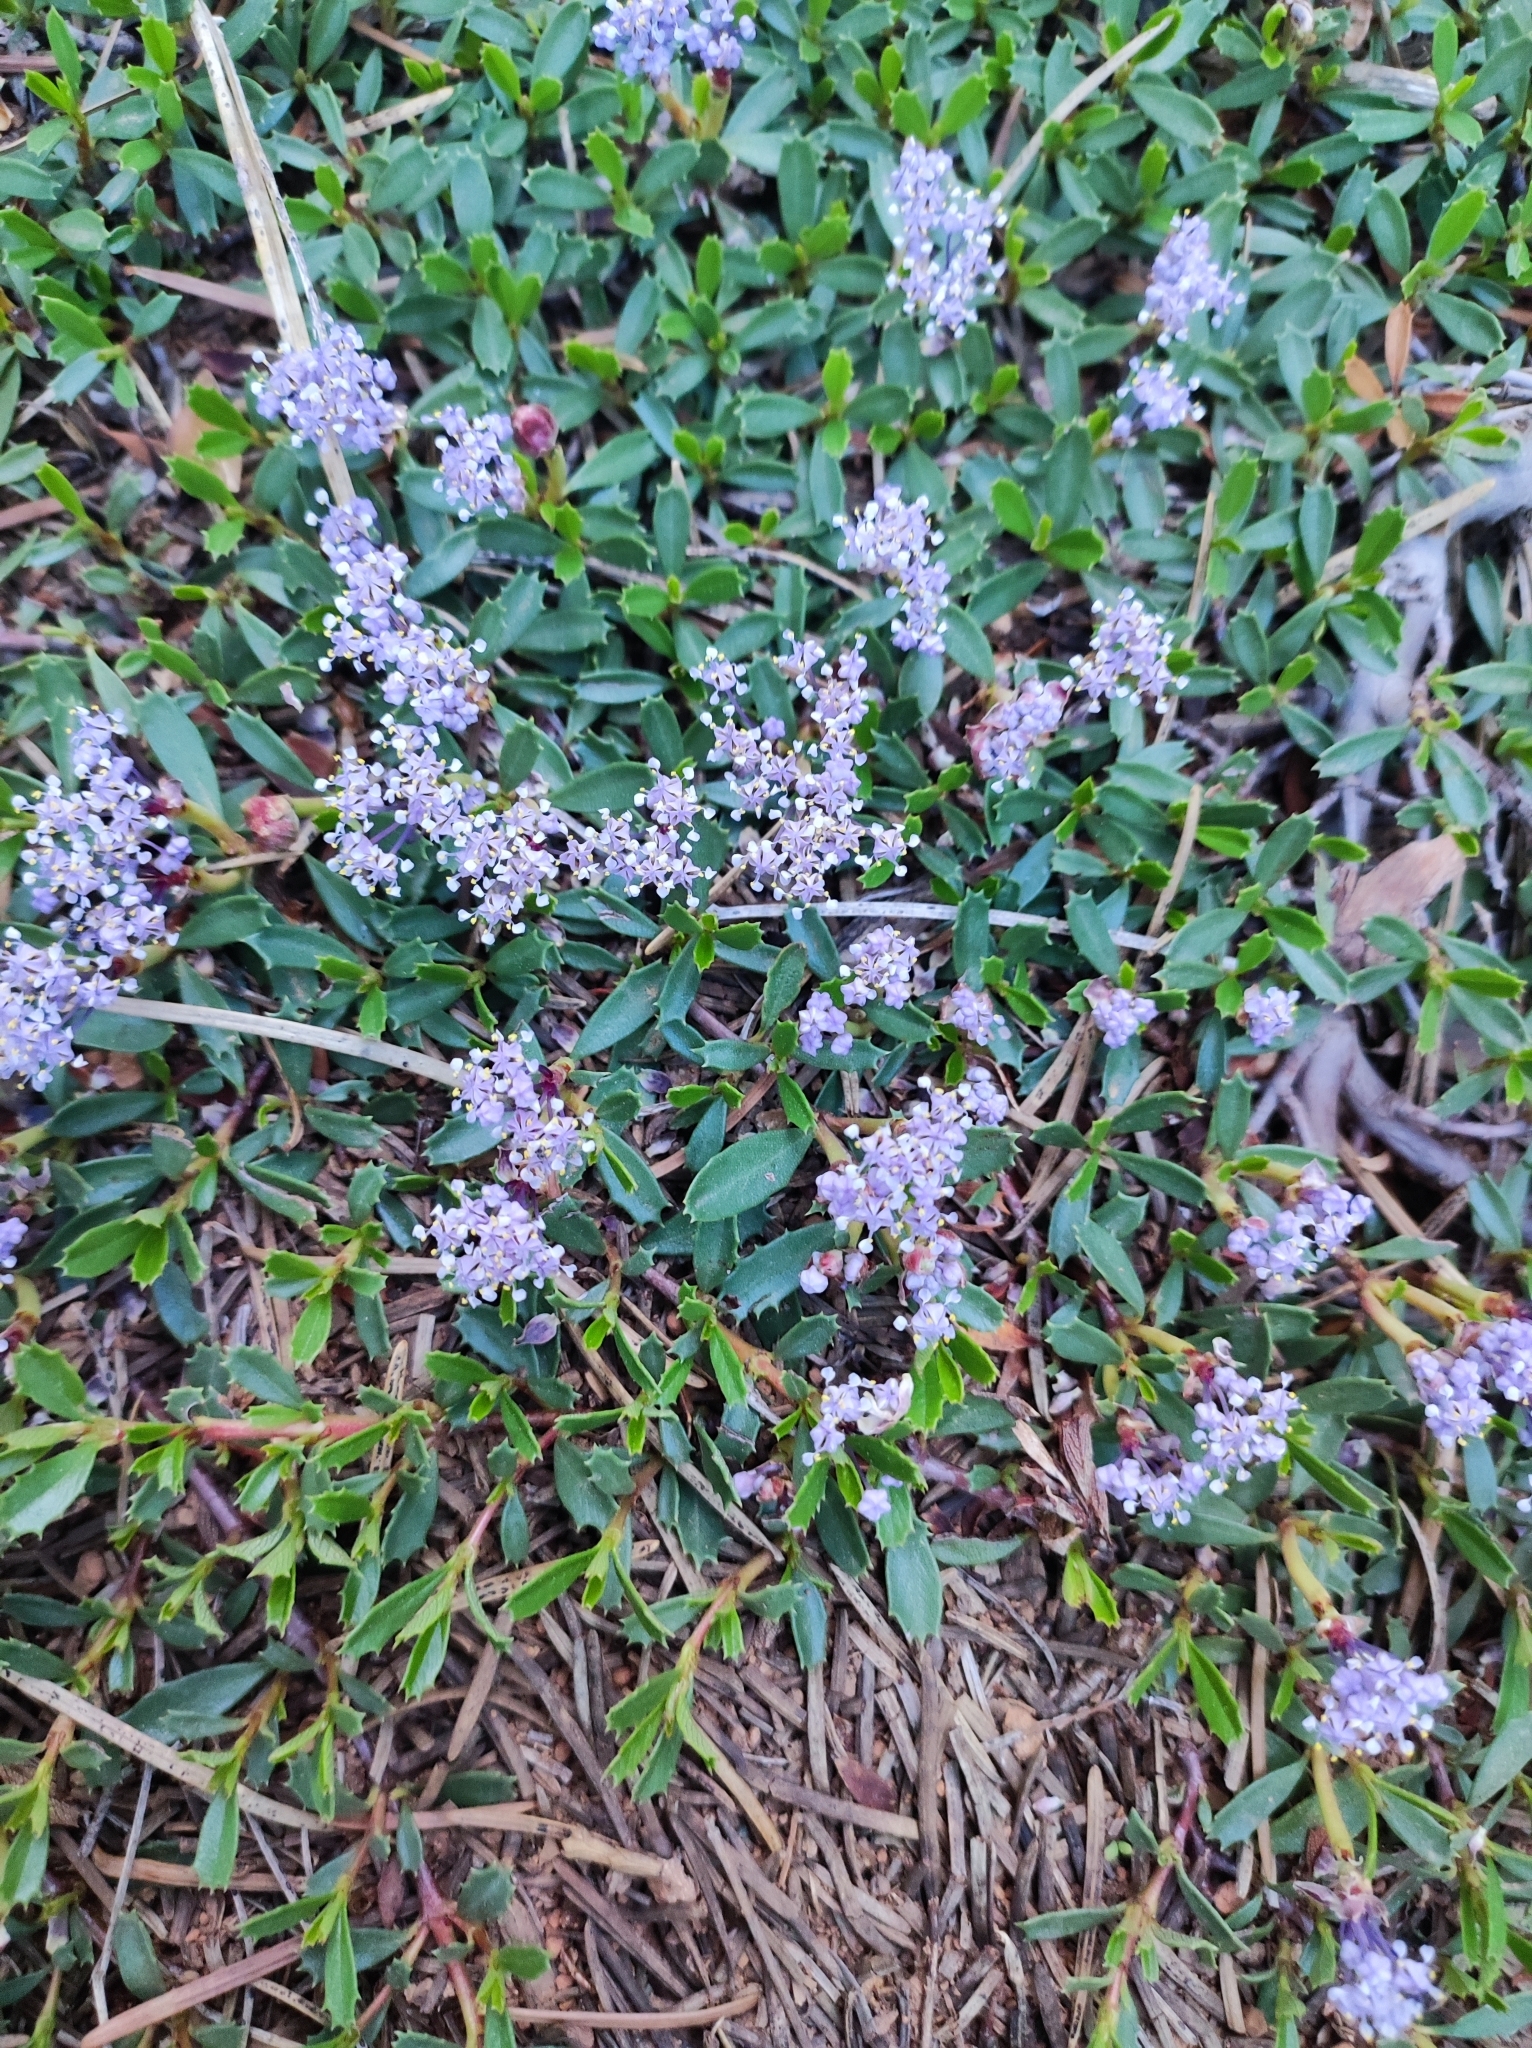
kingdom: Plantae
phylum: Tracheophyta
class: Magnoliopsida
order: Rosales
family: Rhamnaceae
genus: Ceanothus
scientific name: Ceanothus prostratus
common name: Mahala-mat
